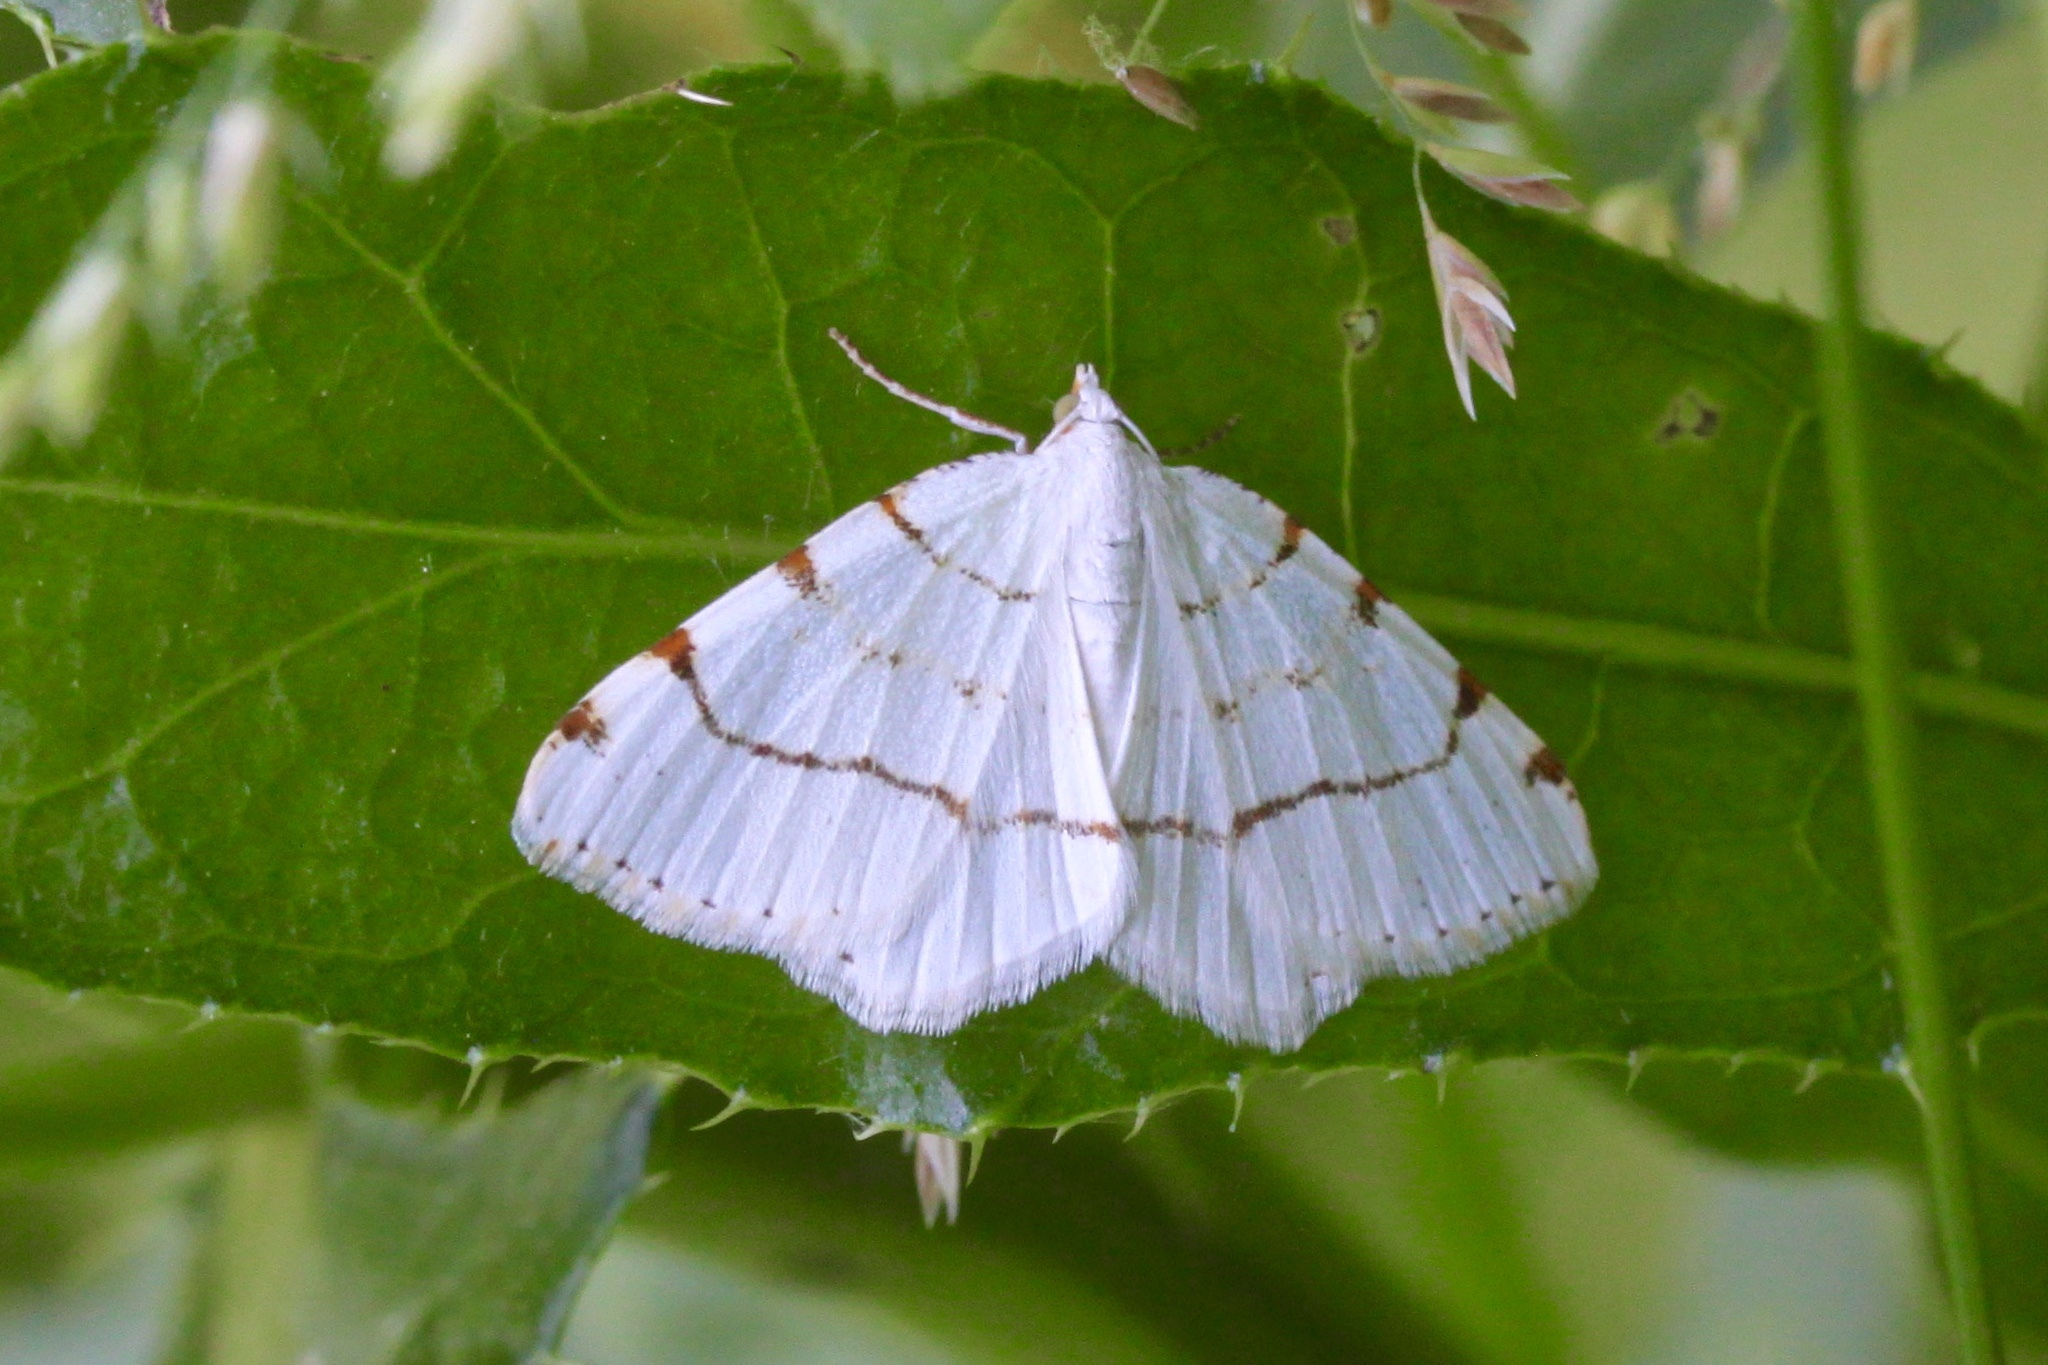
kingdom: Animalia
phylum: Arthropoda
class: Insecta
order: Lepidoptera
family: Geometridae
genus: Macaria
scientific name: Macaria pustularia
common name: Lesser maple spanworm moth
